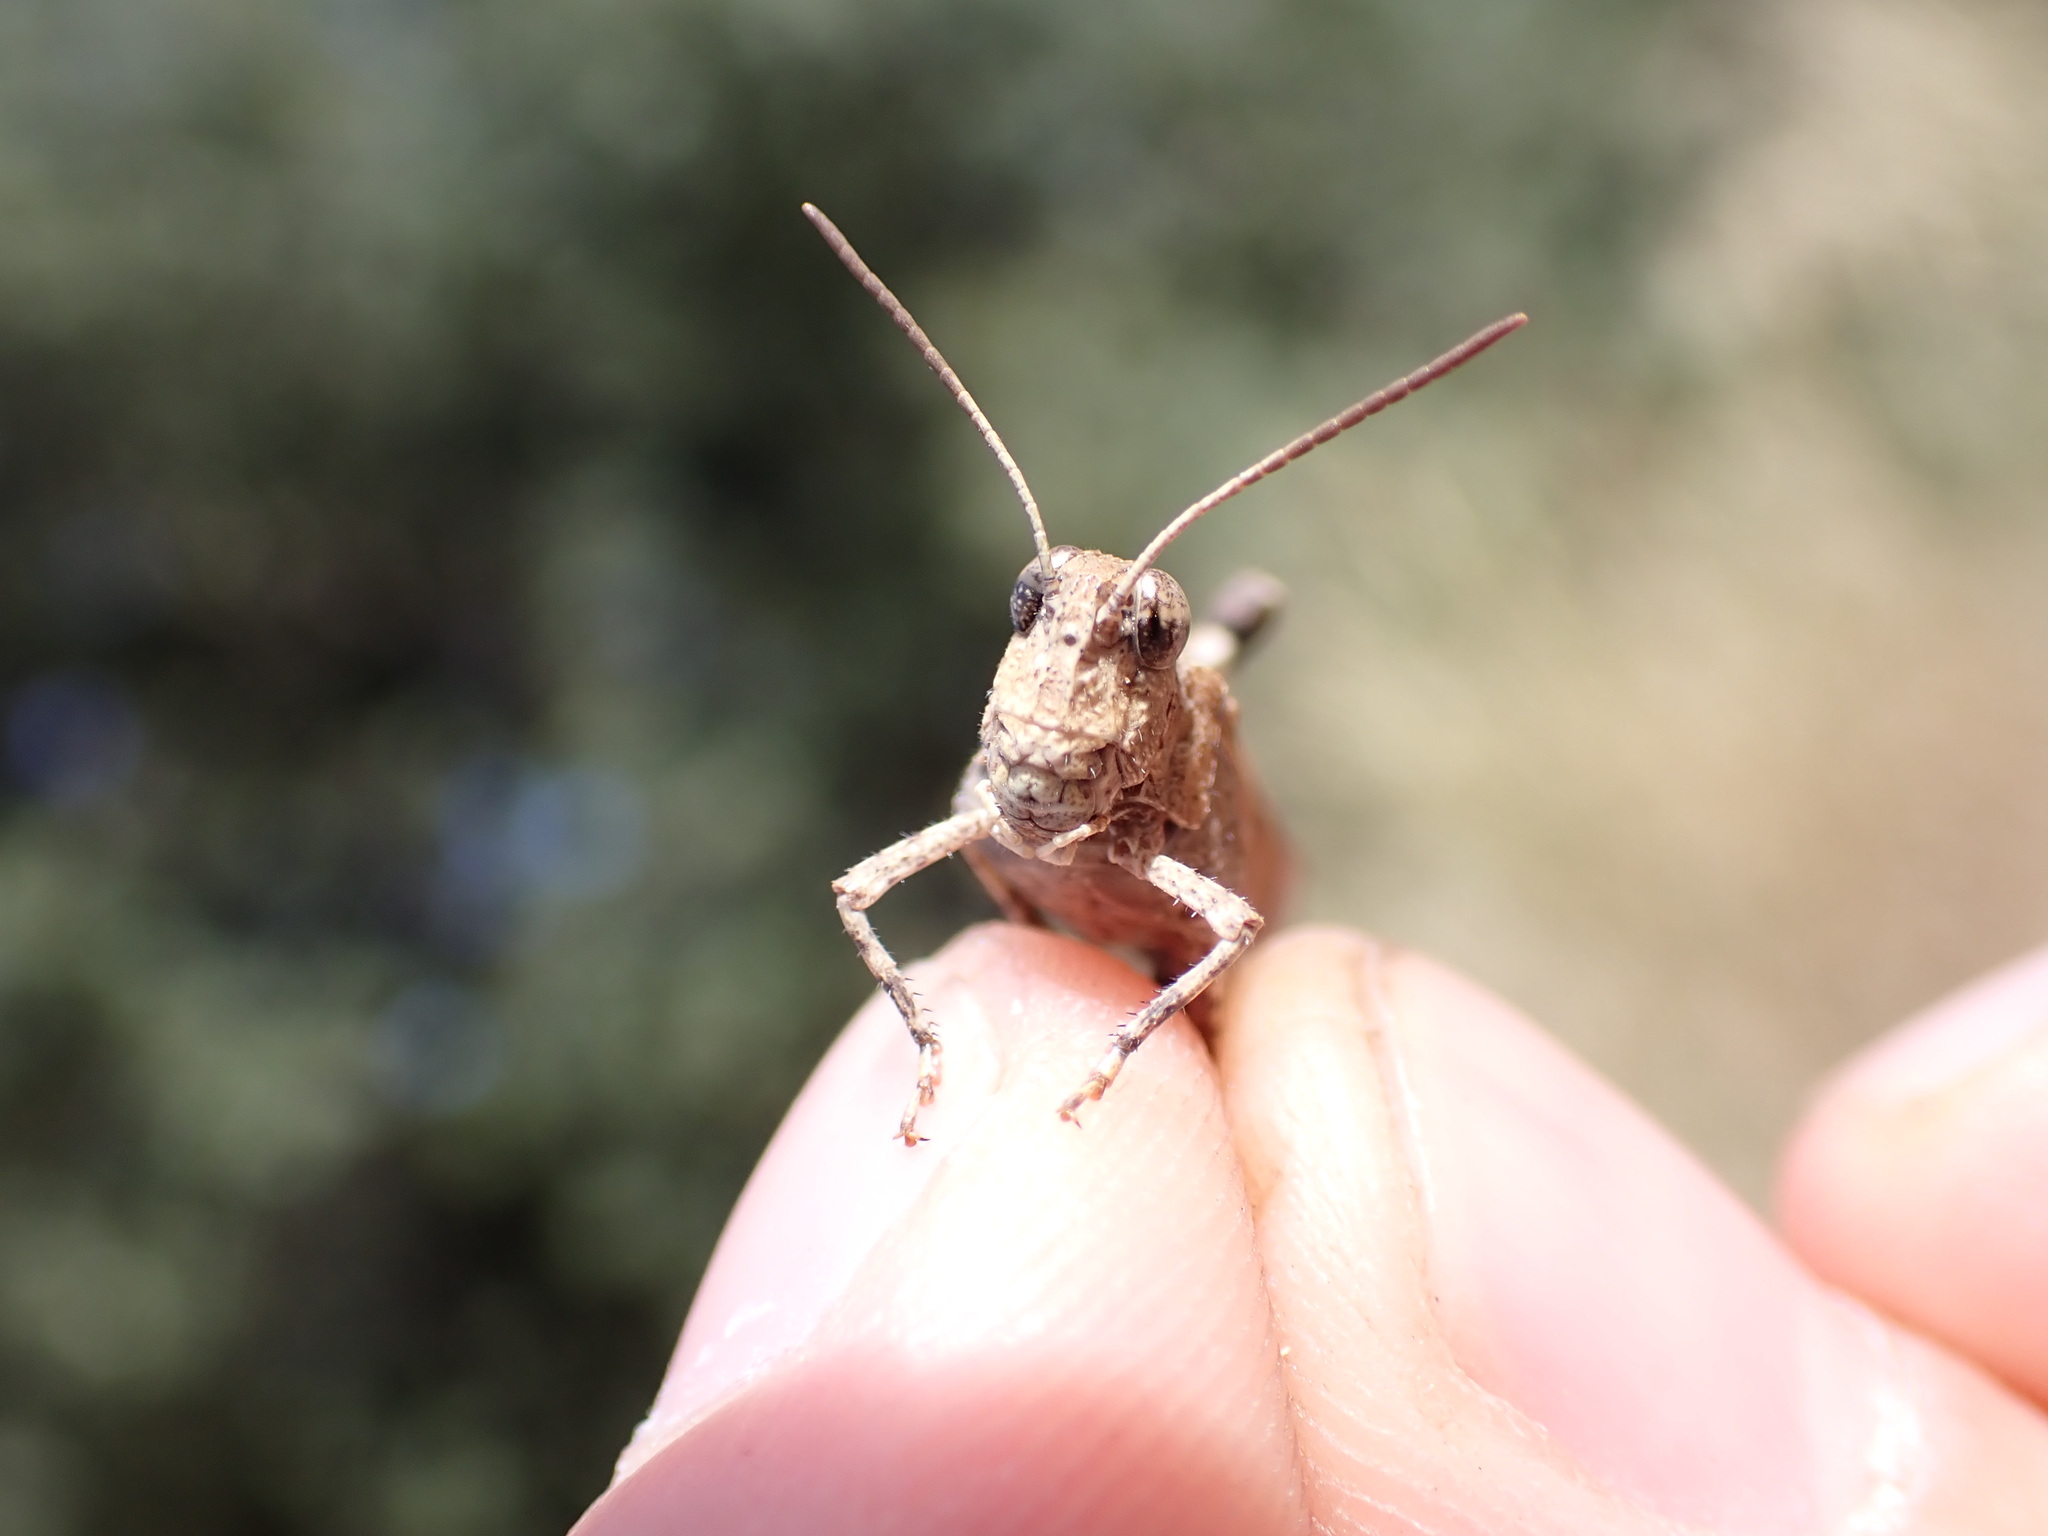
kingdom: Animalia
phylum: Arthropoda
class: Insecta
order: Orthoptera
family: Acrididae
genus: Oedipoda
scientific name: Oedipoda caerulescens
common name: Blue-winged grasshopper
